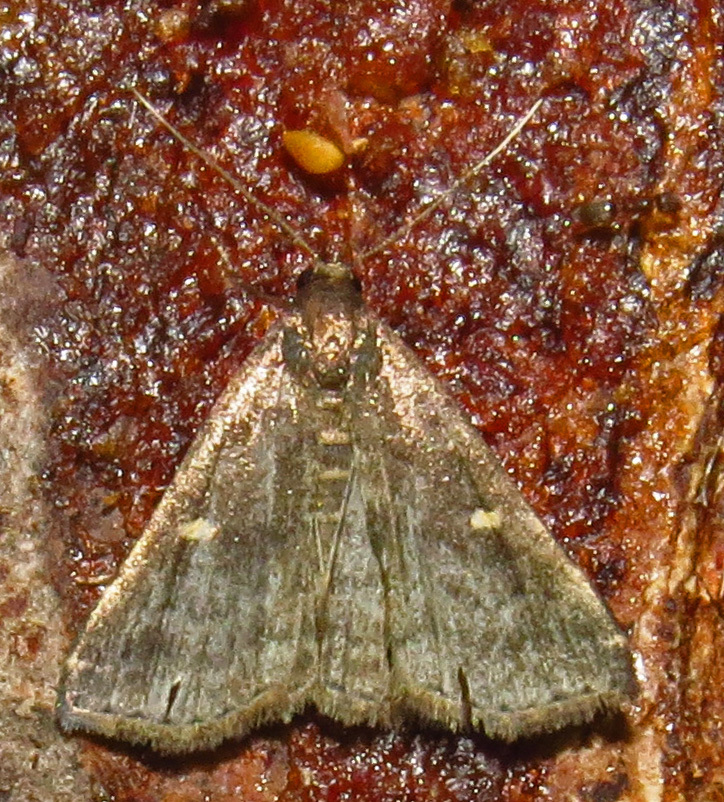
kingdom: Animalia
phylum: Arthropoda
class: Insecta
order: Lepidoptera
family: Erebidae
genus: Tetanolita
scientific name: Tetanolita mynesalis
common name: Smoky tetanolita moth
